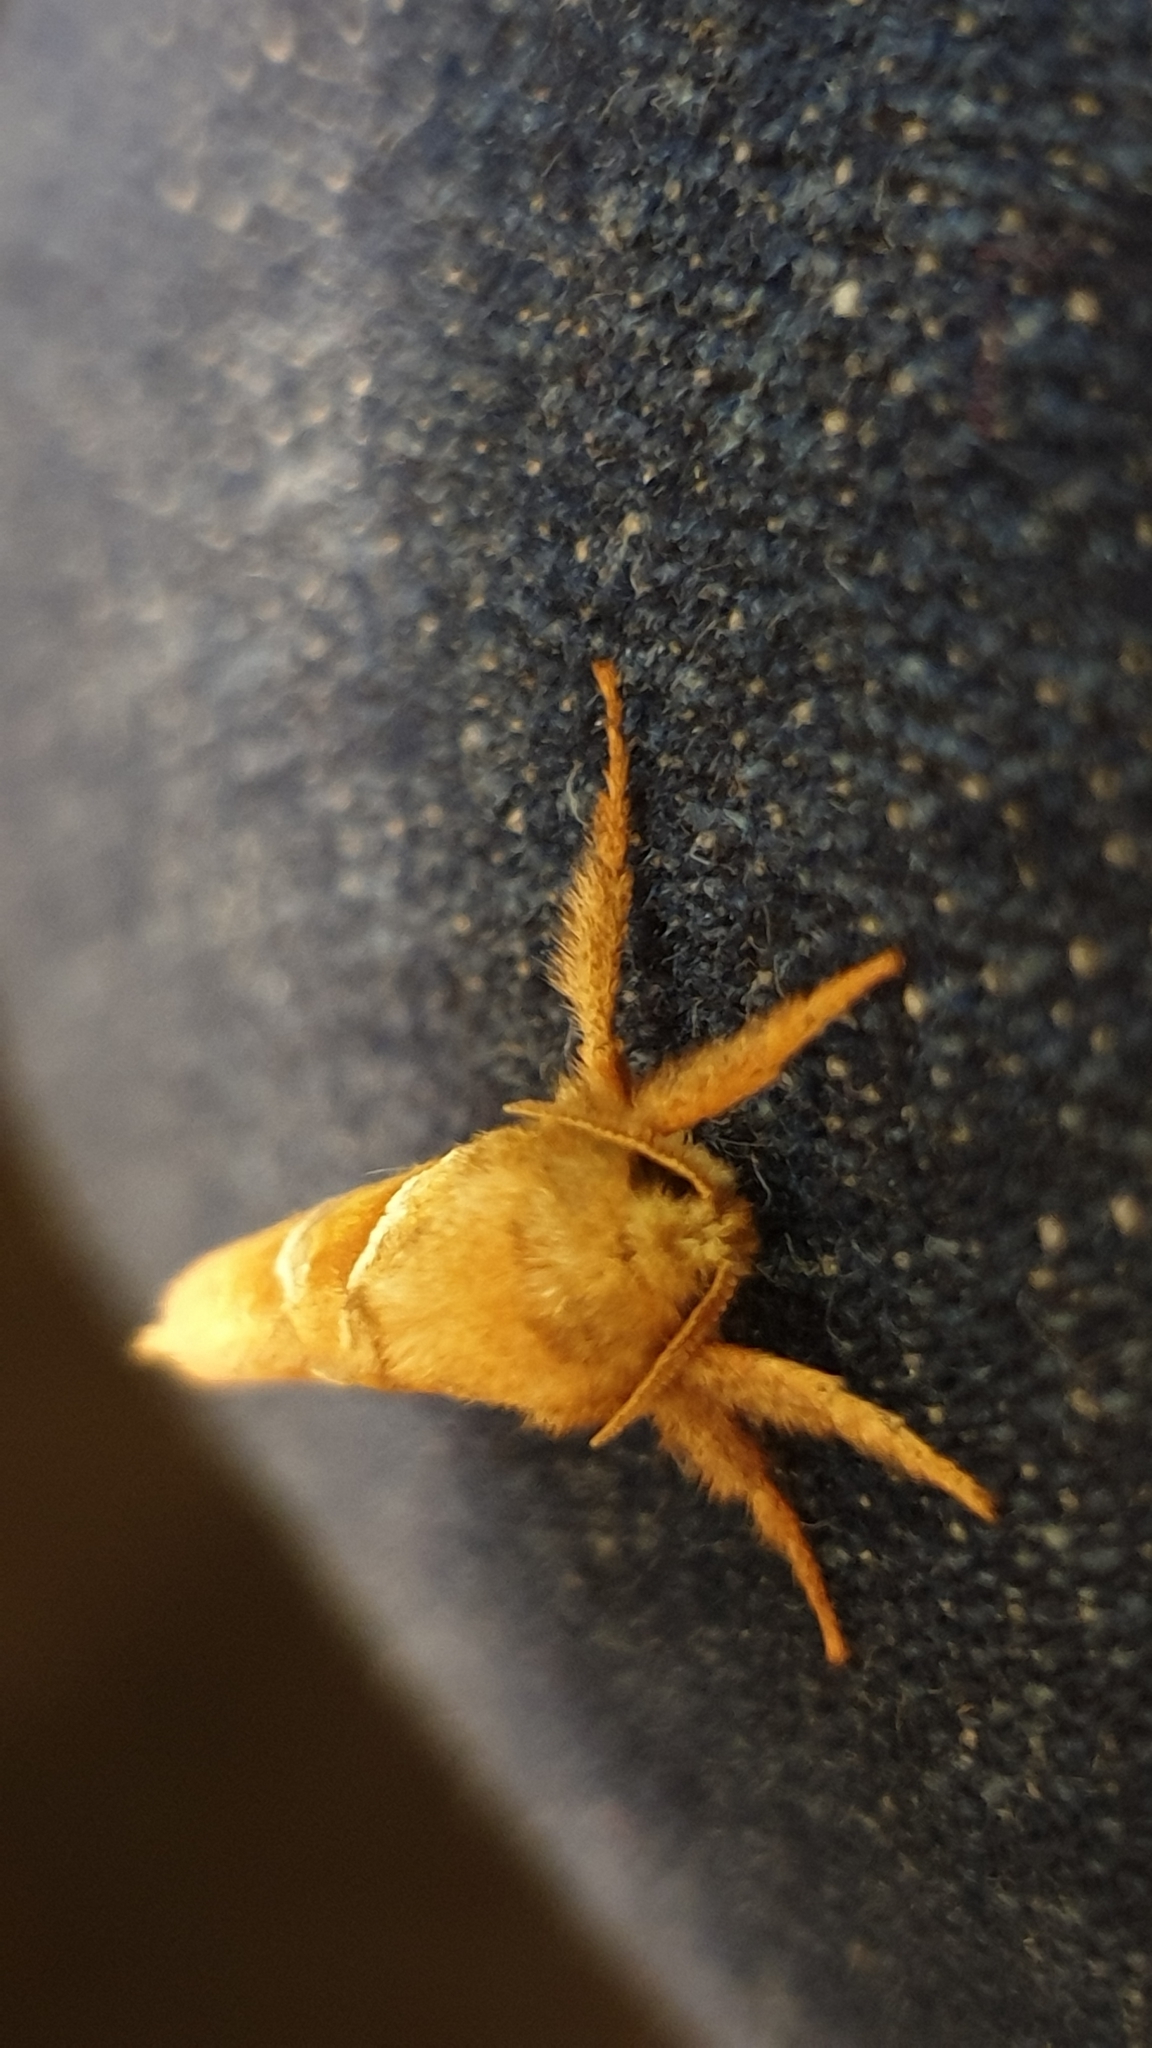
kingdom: Animalia
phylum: Arthropoda
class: Insecta
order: Lepidoptera
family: Hepialidae
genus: Triodia
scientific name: Triodia sylvina
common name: Orange swift
